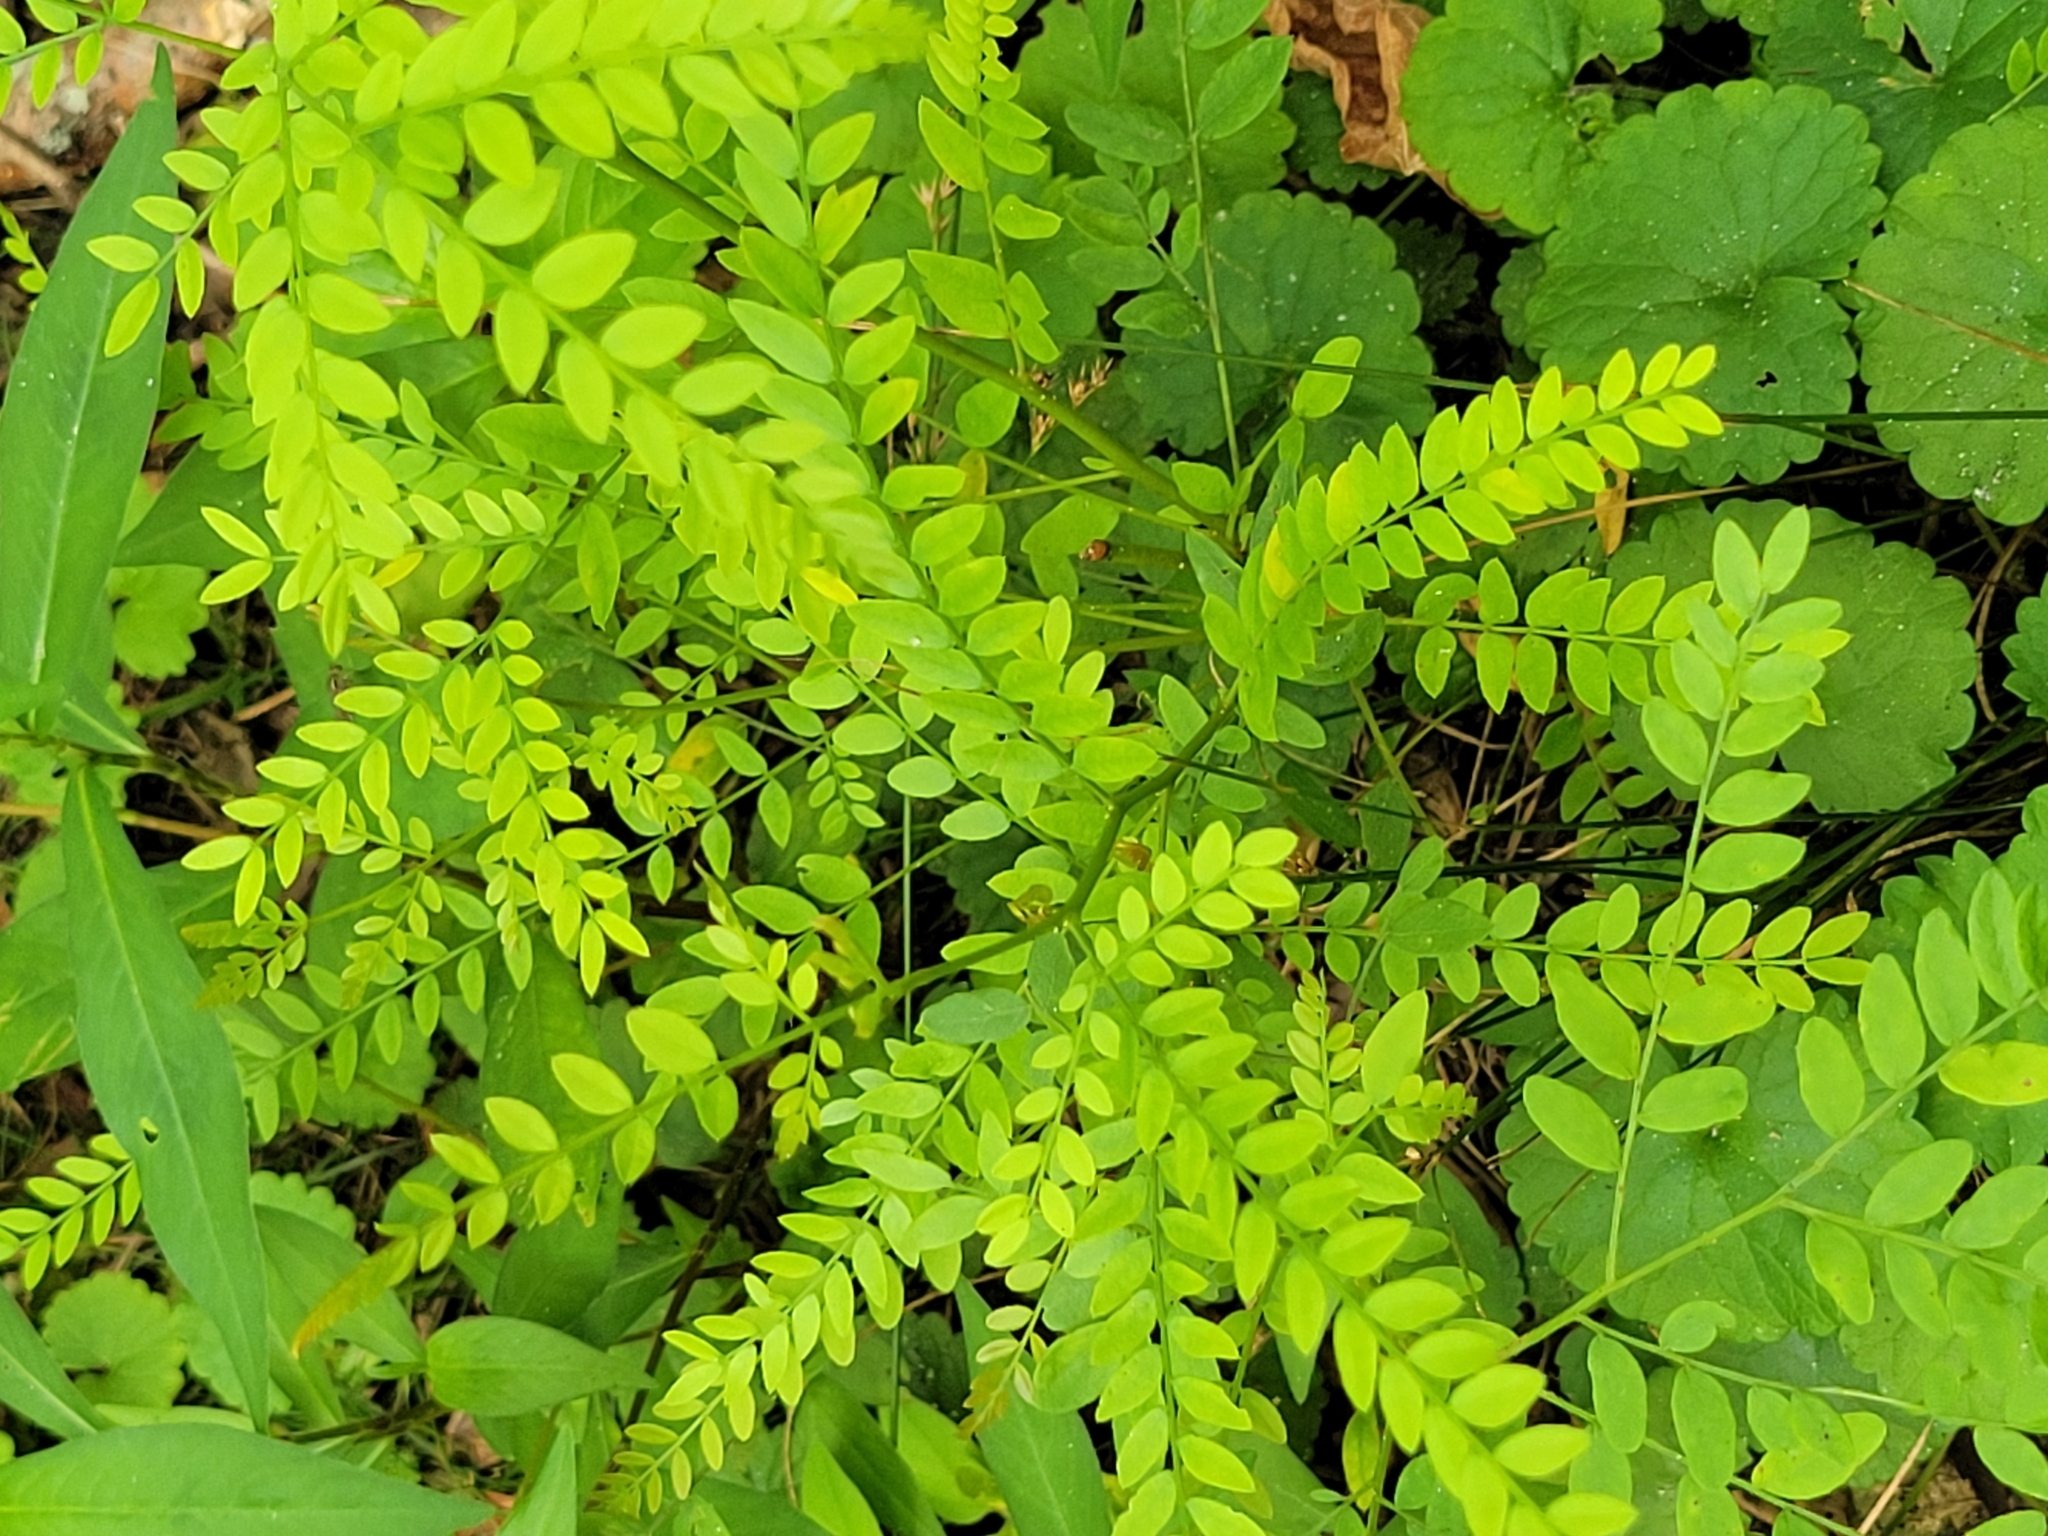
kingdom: Plantae
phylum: Tracheophyta
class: Magnoliopsida
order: Fabales
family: Fabaceae
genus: Gleditsia
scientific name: Gleditsia triacanthos
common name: Common honeylocust
